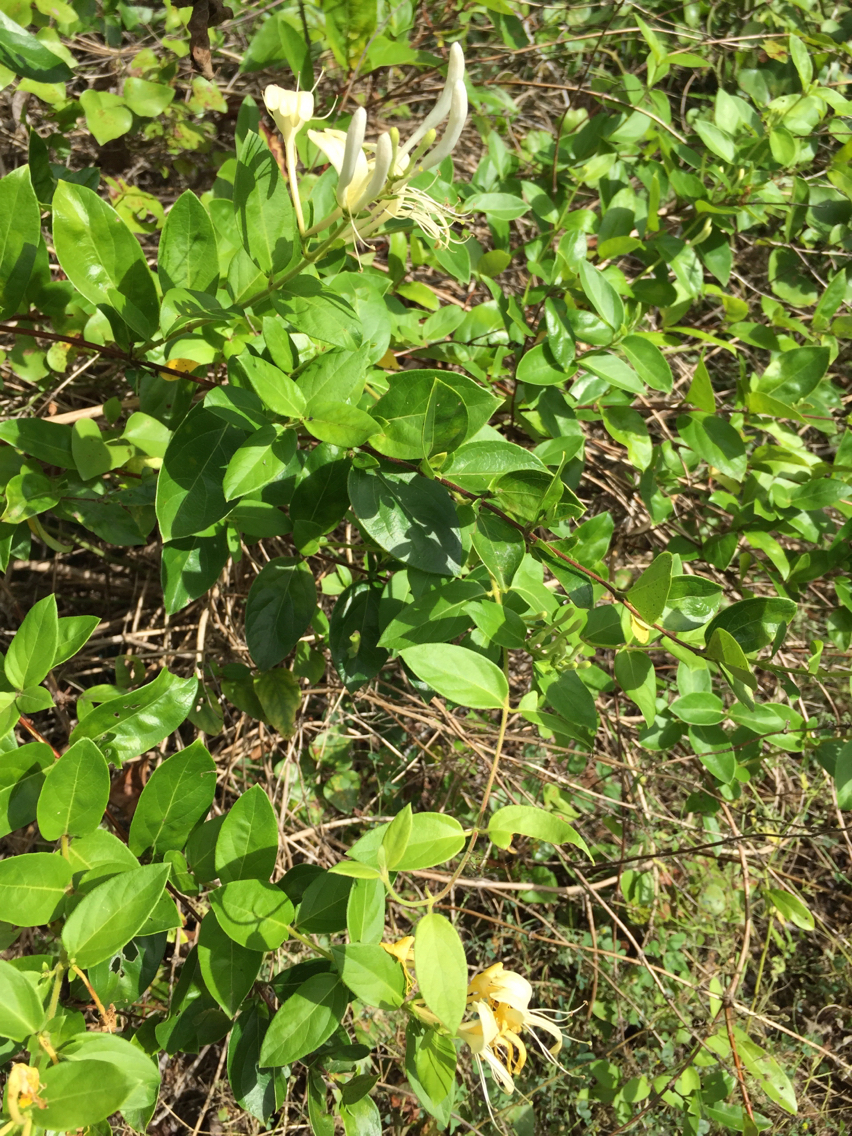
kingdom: Plantae
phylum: Tracheophyta
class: Magnoliopsida
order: Dipsacales
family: Caprifoliaceae
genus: Lonicera
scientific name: Lonicera japonica
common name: Japanese honeysuckle
